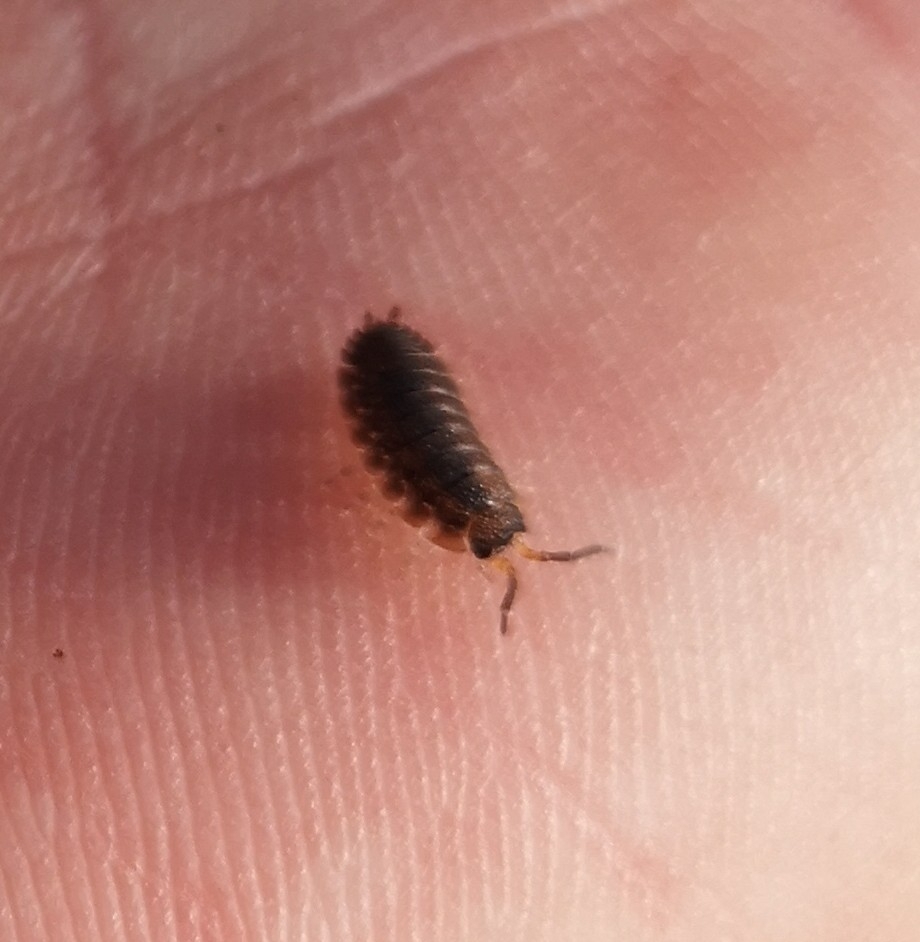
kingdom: Animalia
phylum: Arthropoda
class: Malacostraca
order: Isopoda
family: Porcellionidae
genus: Porcellio
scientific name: Porcellio scaber
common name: Common rough woodlouse
